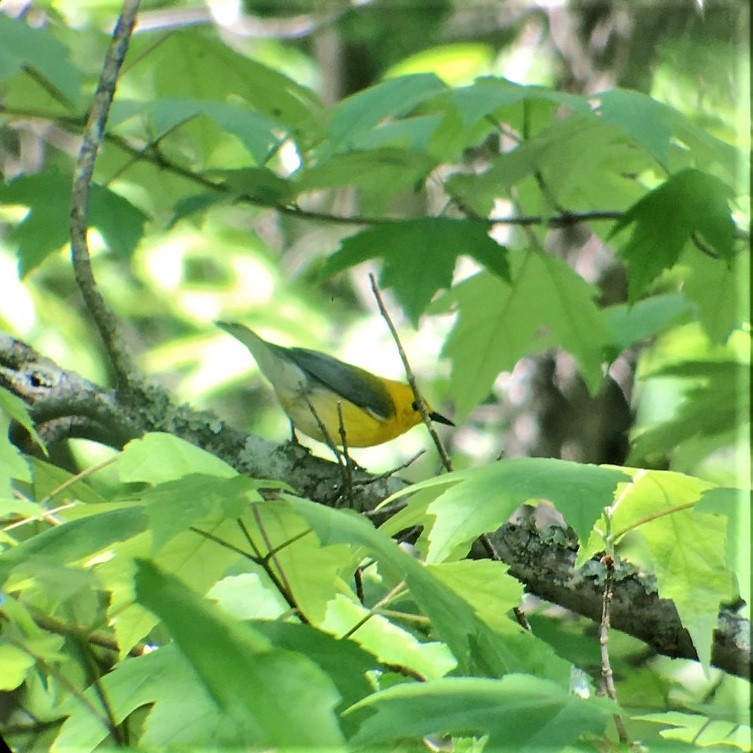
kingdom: Animalia
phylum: Chordata
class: Aves
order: Passeriformes
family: Parulidae
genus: Protonotaria
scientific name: Protonotaria citrea
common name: Prothonotary warbler
